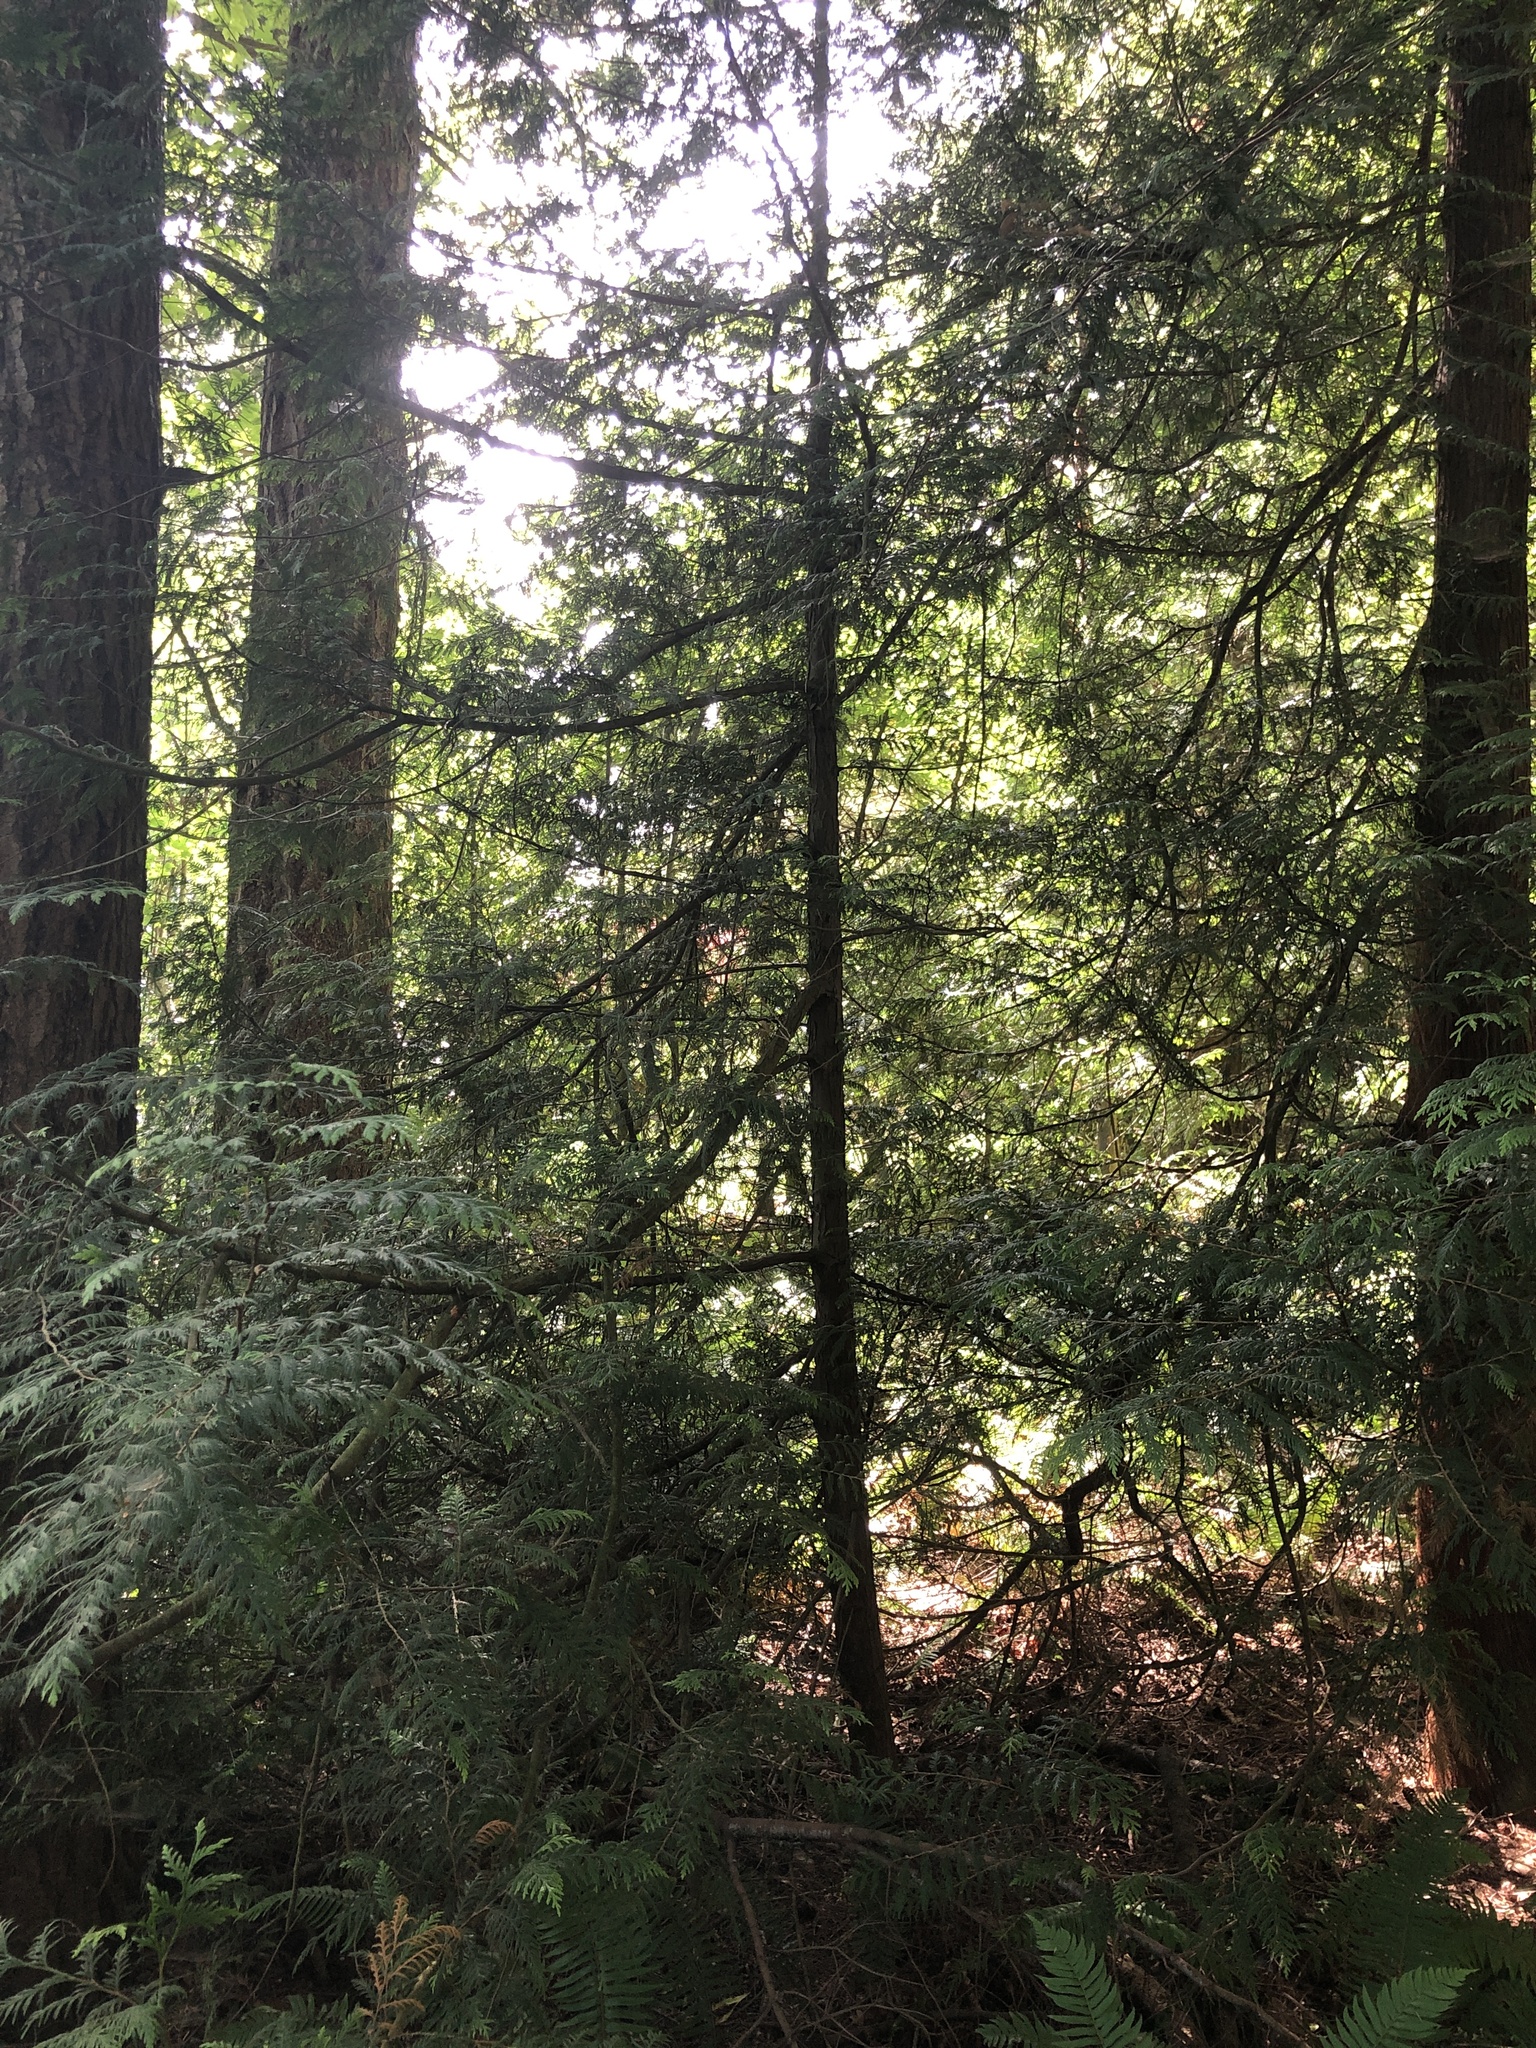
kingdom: Plantae
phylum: Tracheophyta
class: Pinopsida
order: Pinales
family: Cupressaceae
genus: Thuja
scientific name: Thuja plicata
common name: Western red-cedar
